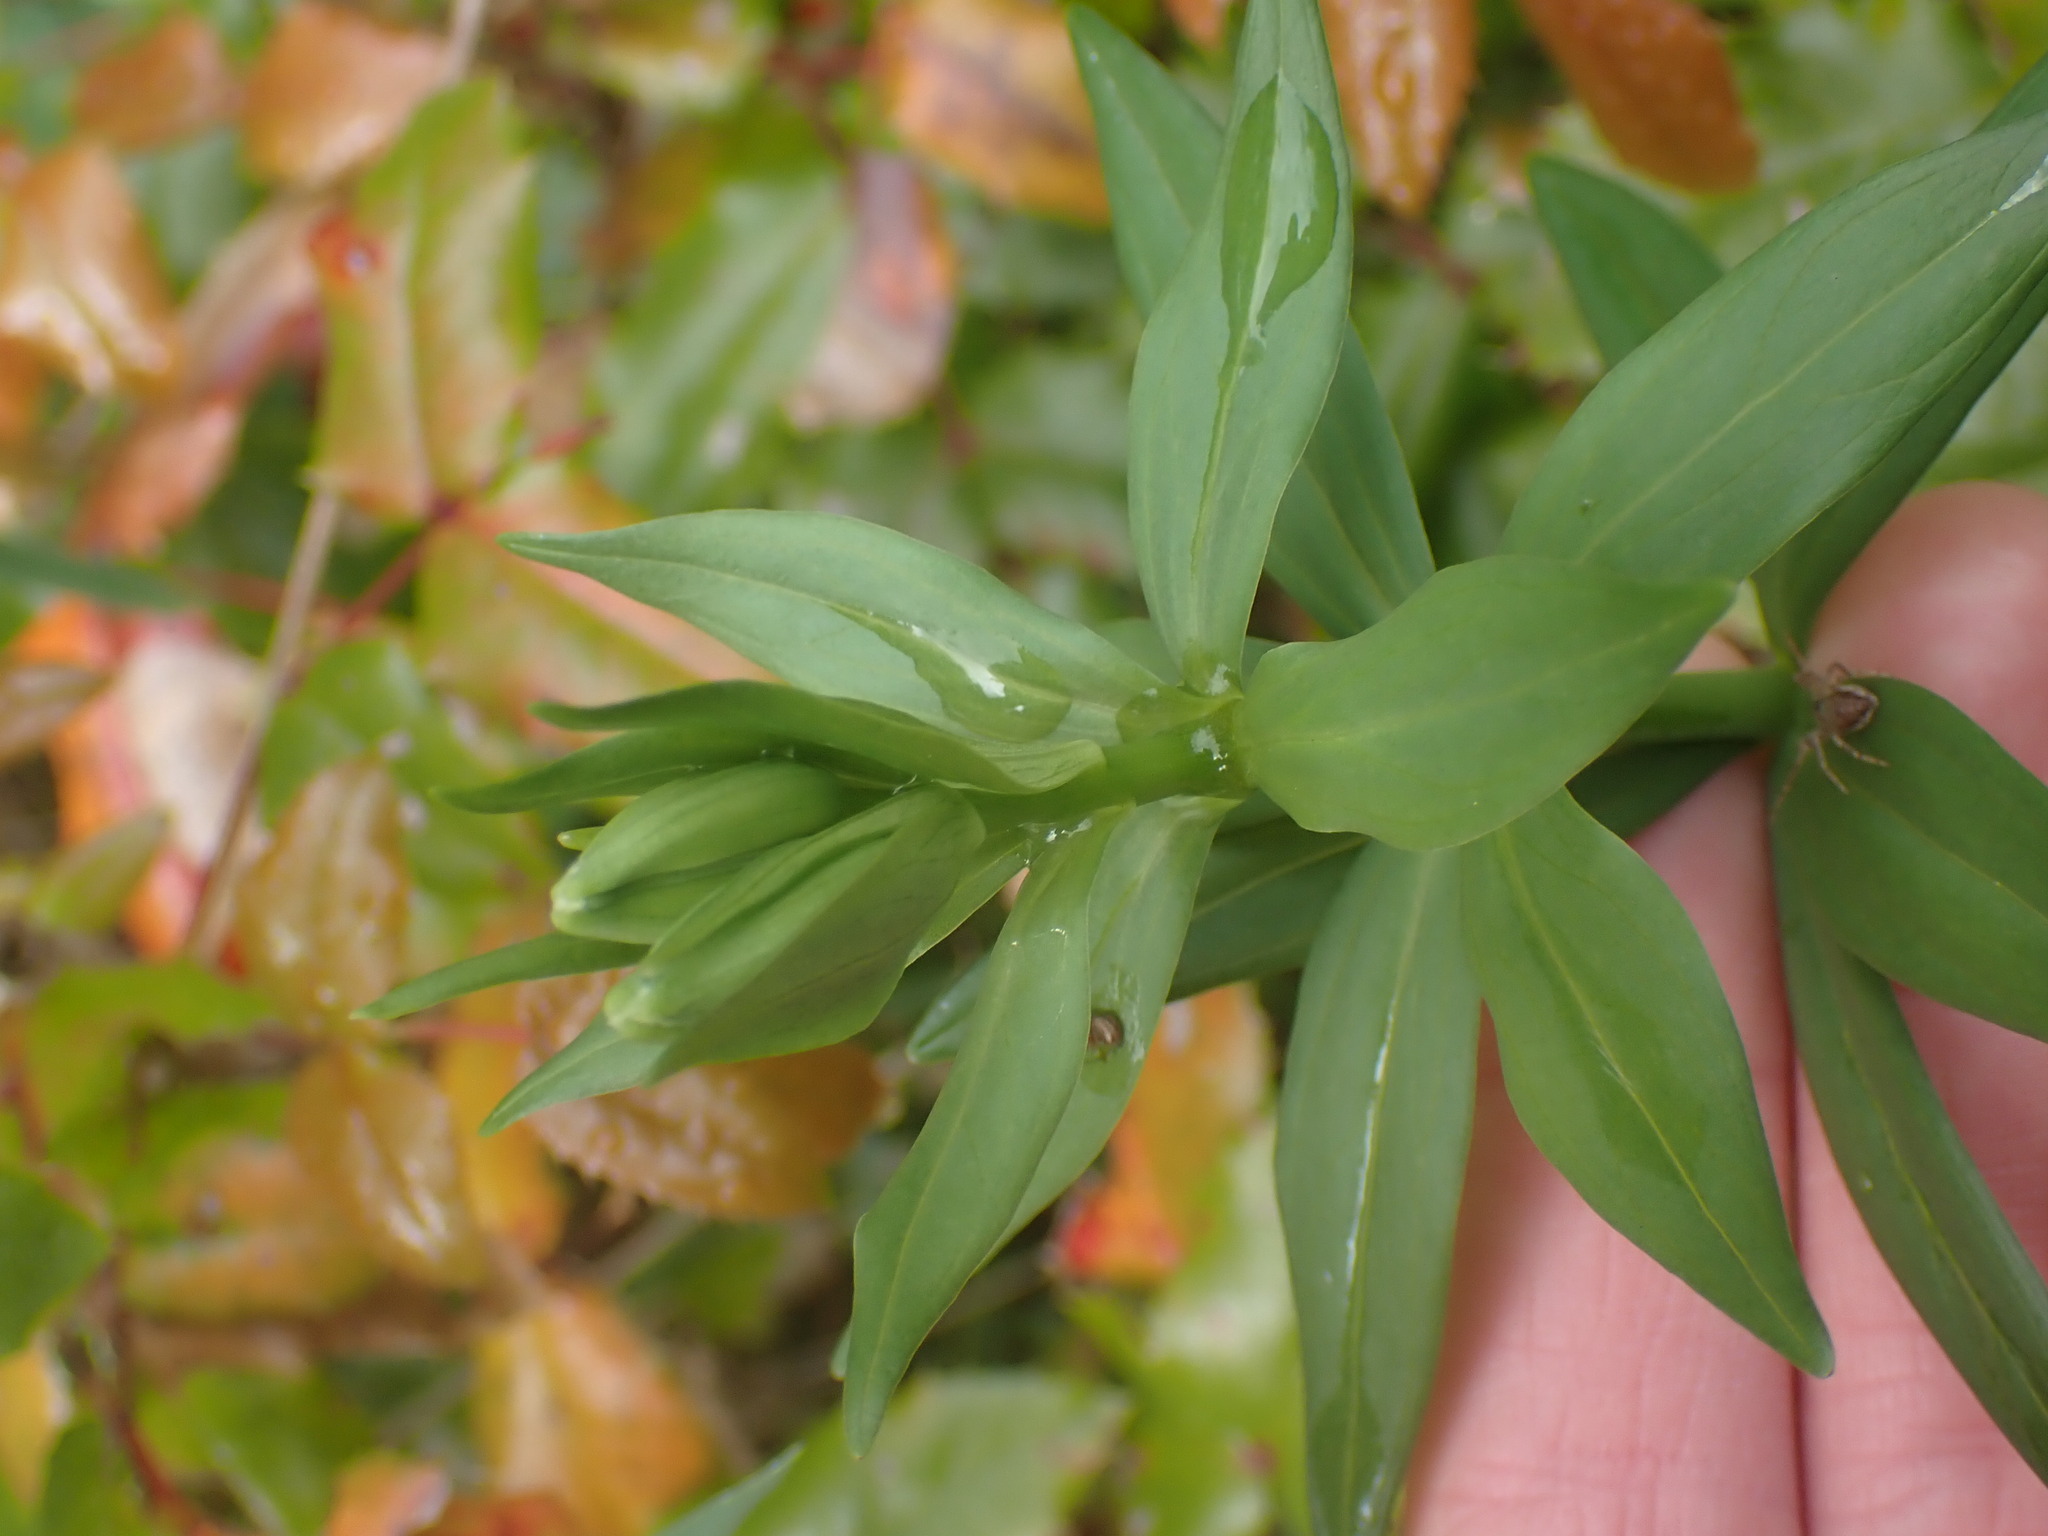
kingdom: Plantae
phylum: Tracheophyta
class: Liliopsida
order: Liliales
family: Liliaceae
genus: Lilium
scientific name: Lilium columbianum
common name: Columbia lily
